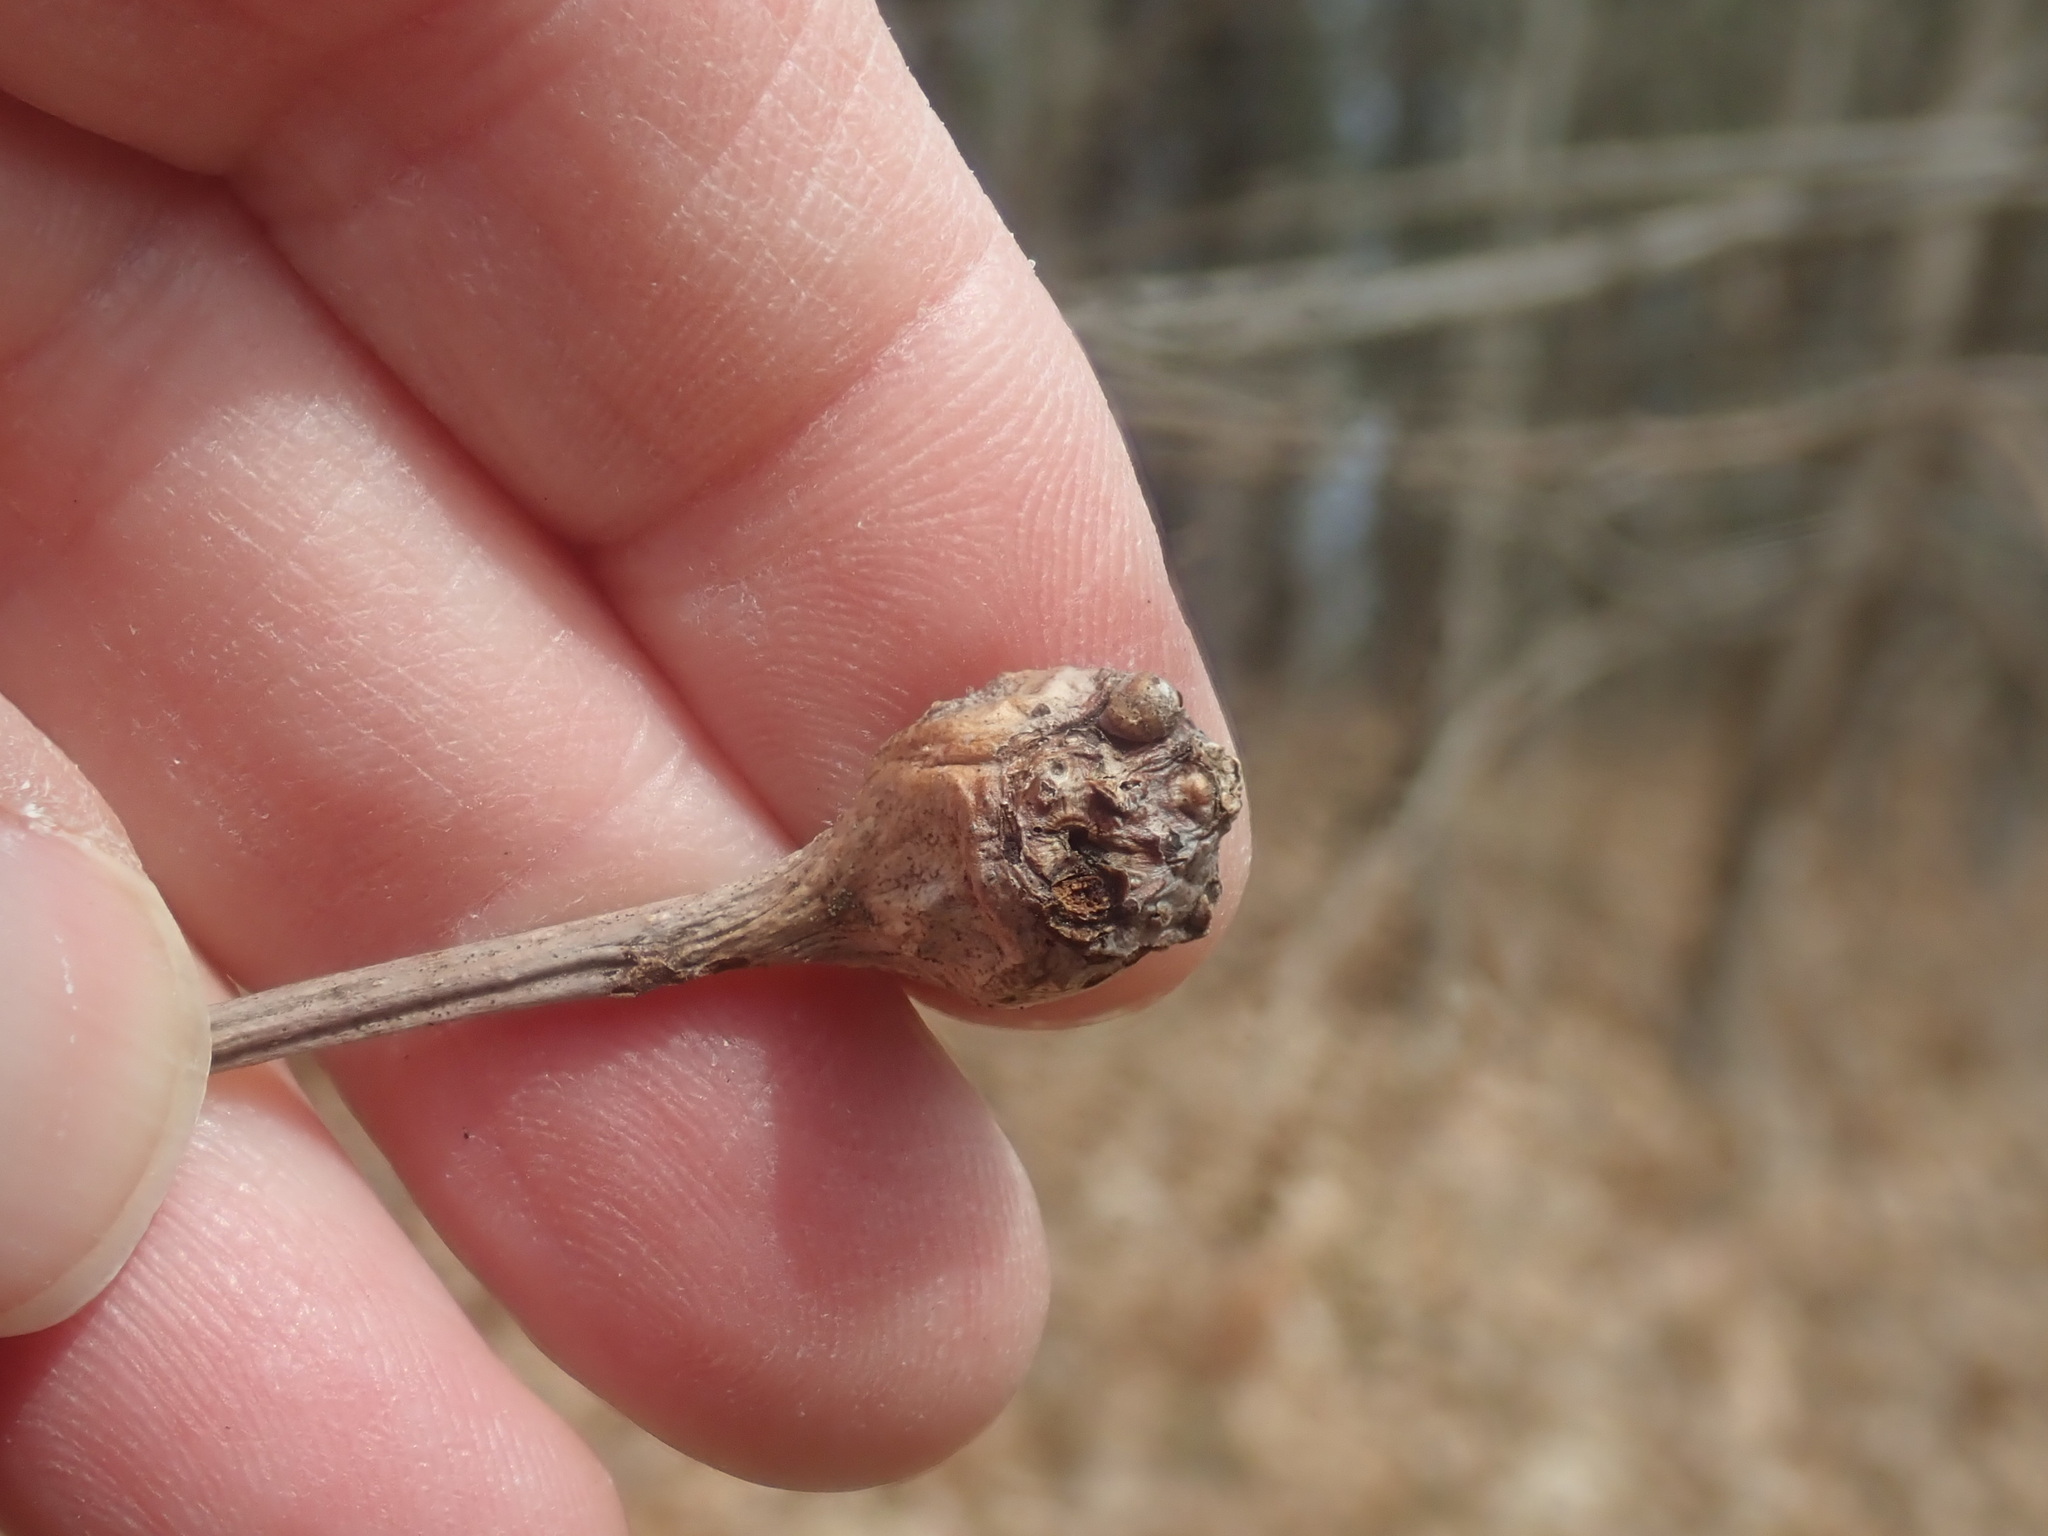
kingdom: Animalia
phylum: Arthropoda
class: Insecta
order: Hymenoptera
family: Cynipidae
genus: Callirhytis
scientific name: Callirhytis clavula
